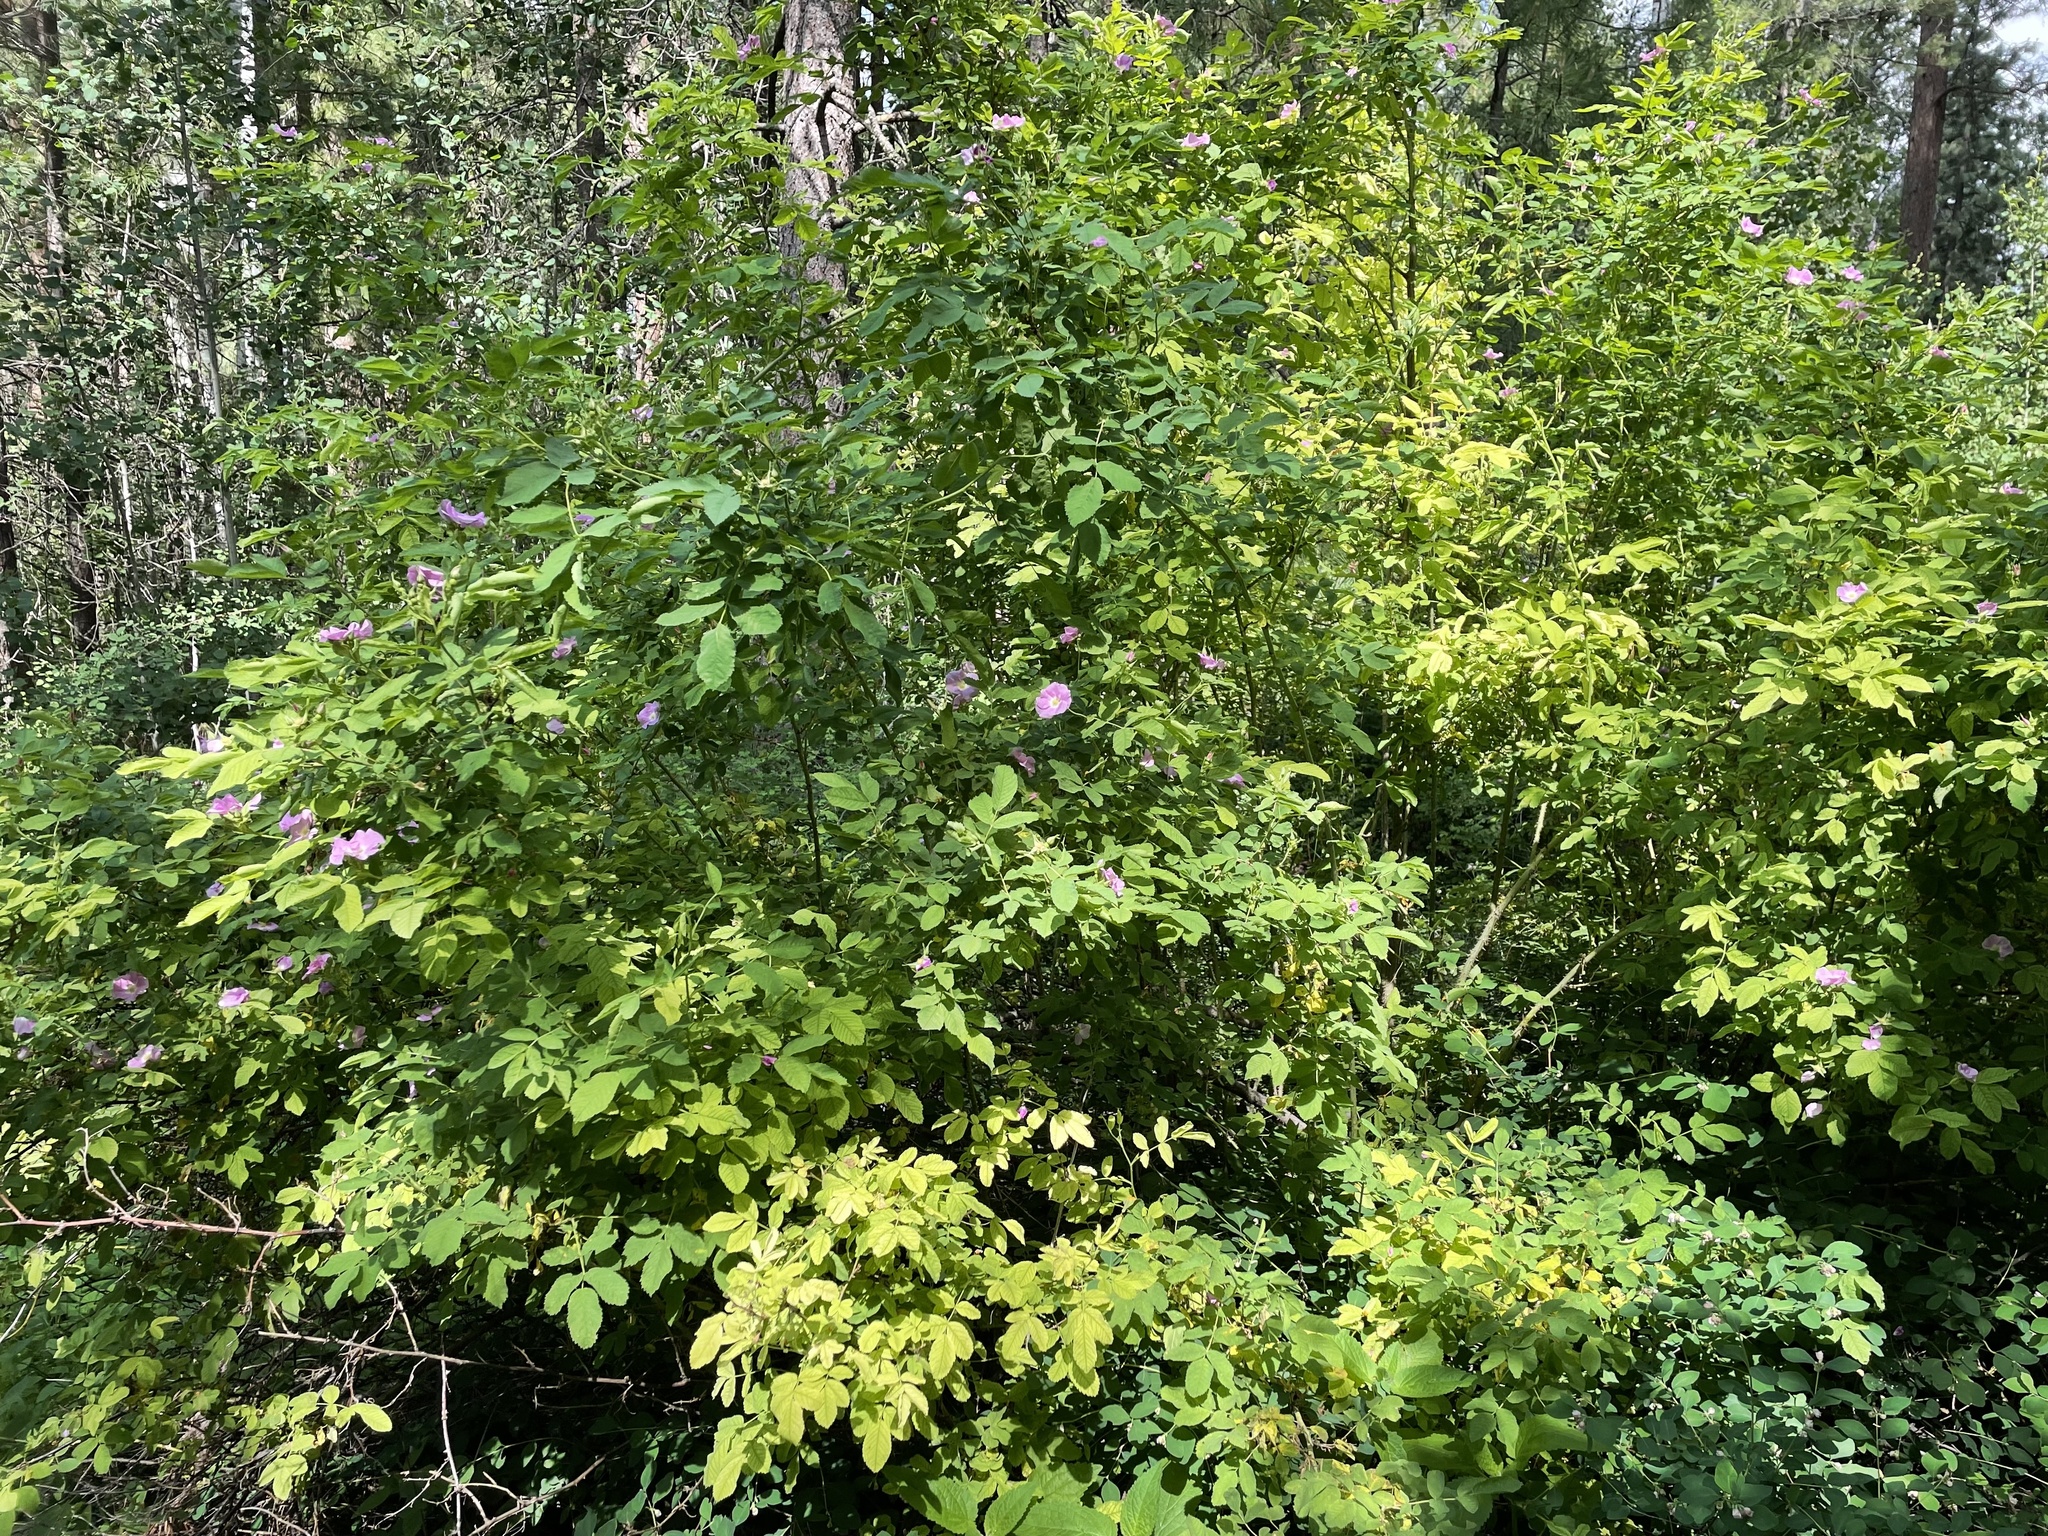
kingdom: Plantae
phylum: Tracheophyta
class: Magnoliopsida
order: Rosales
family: Rosaceae
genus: Rosa
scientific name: Rosa woodsii
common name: Woods's rose
